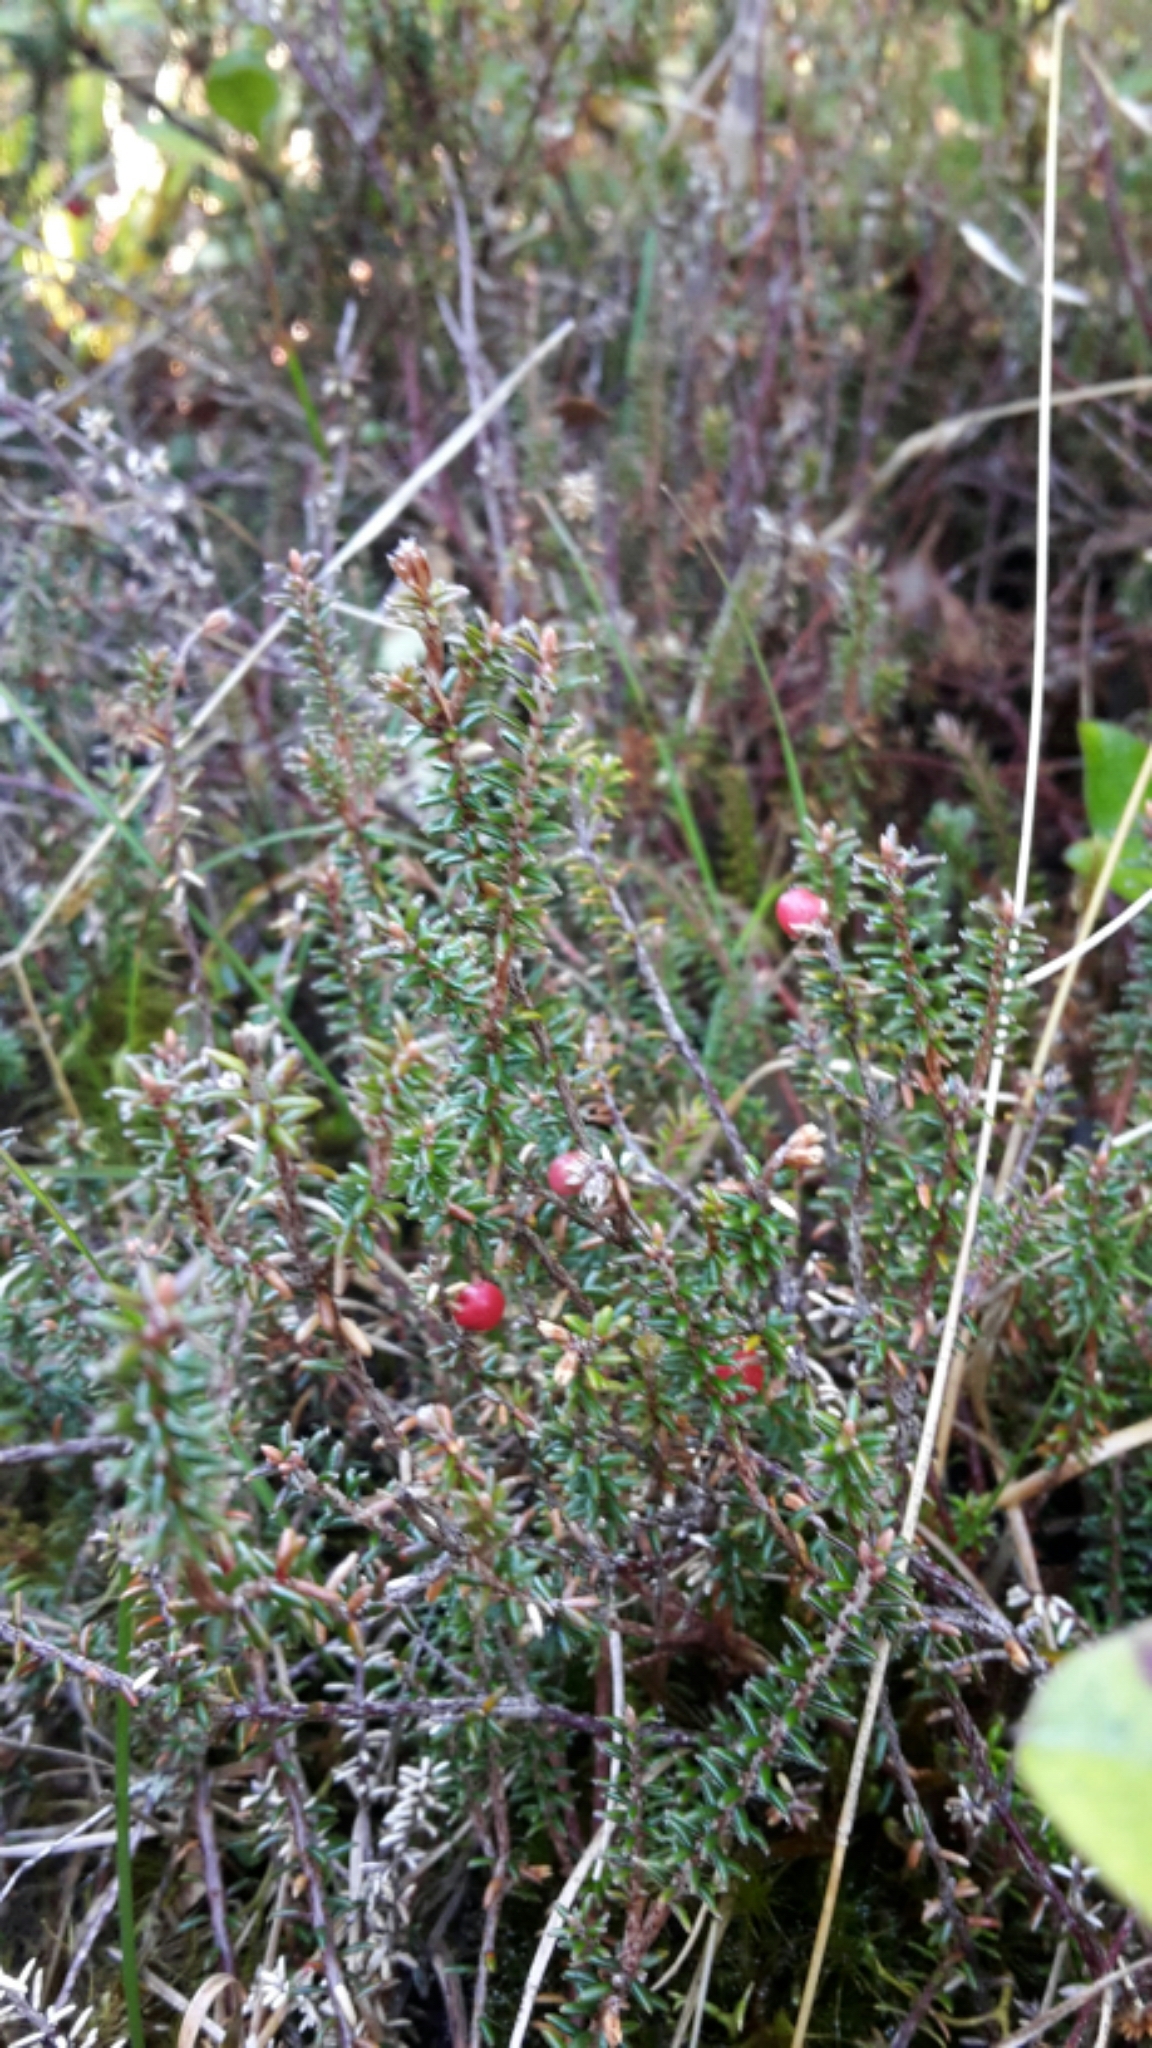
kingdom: Plantae
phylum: Tracheophyta
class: Magnoliopsida
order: Ericales
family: Ericaceae
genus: Androstoma
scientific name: Androstoma empetrifolia
